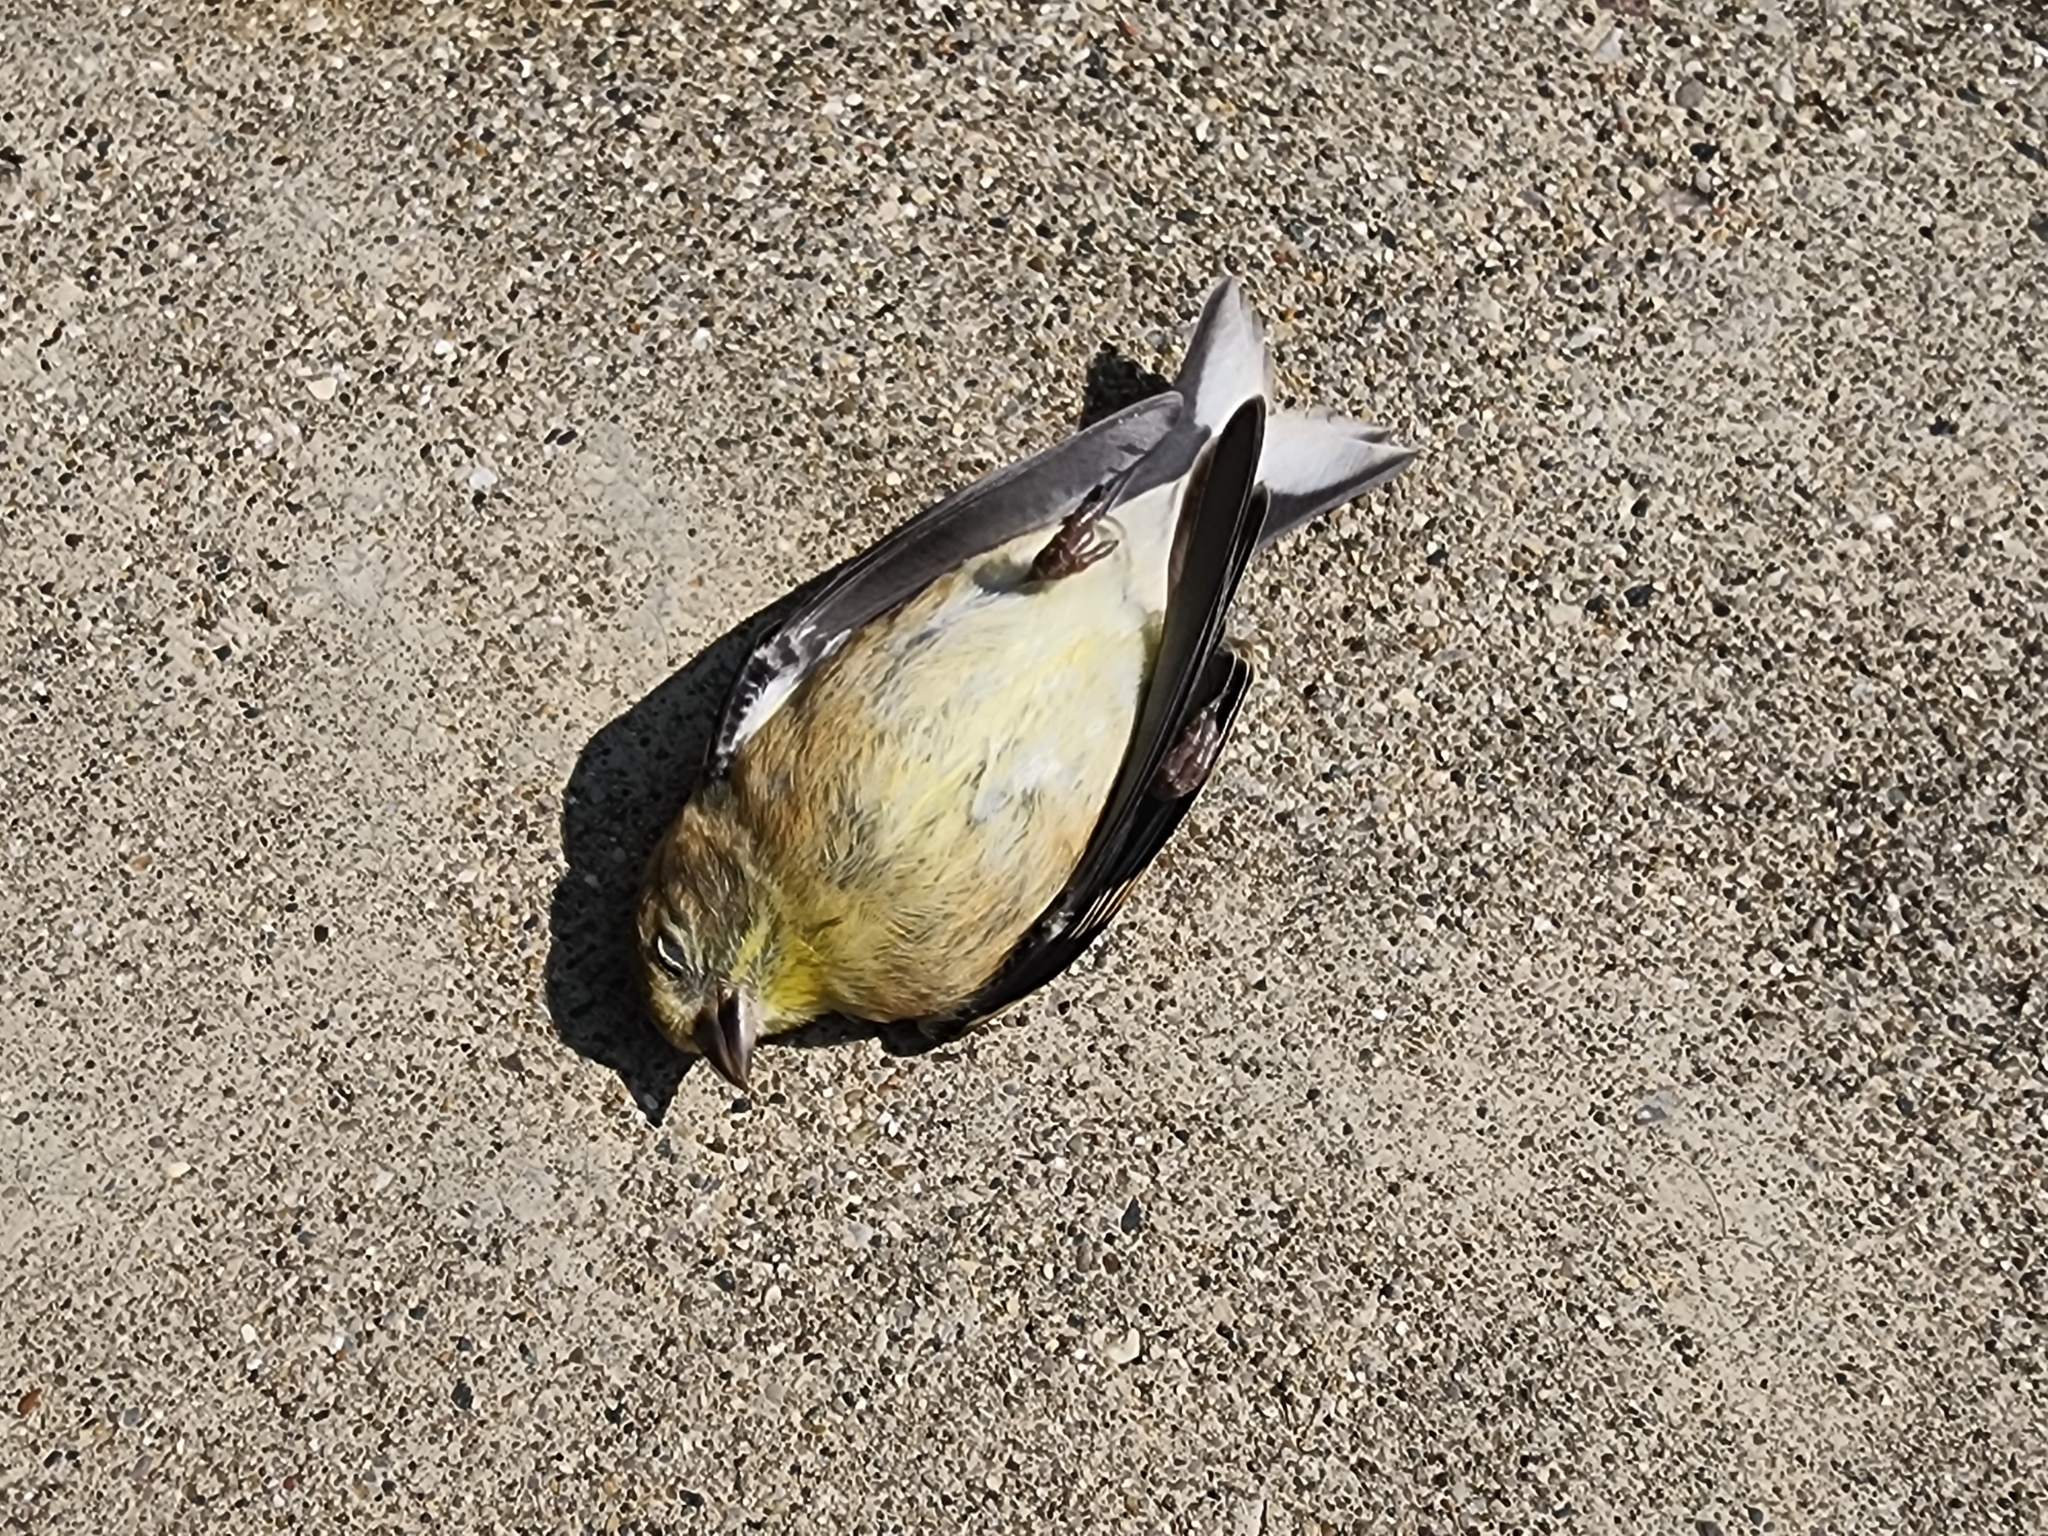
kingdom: Animalia
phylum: Chordata
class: Aves
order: Passeriformes
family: Fringillidae
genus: Spinus
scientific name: Spinus tristis
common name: American goldfinch
